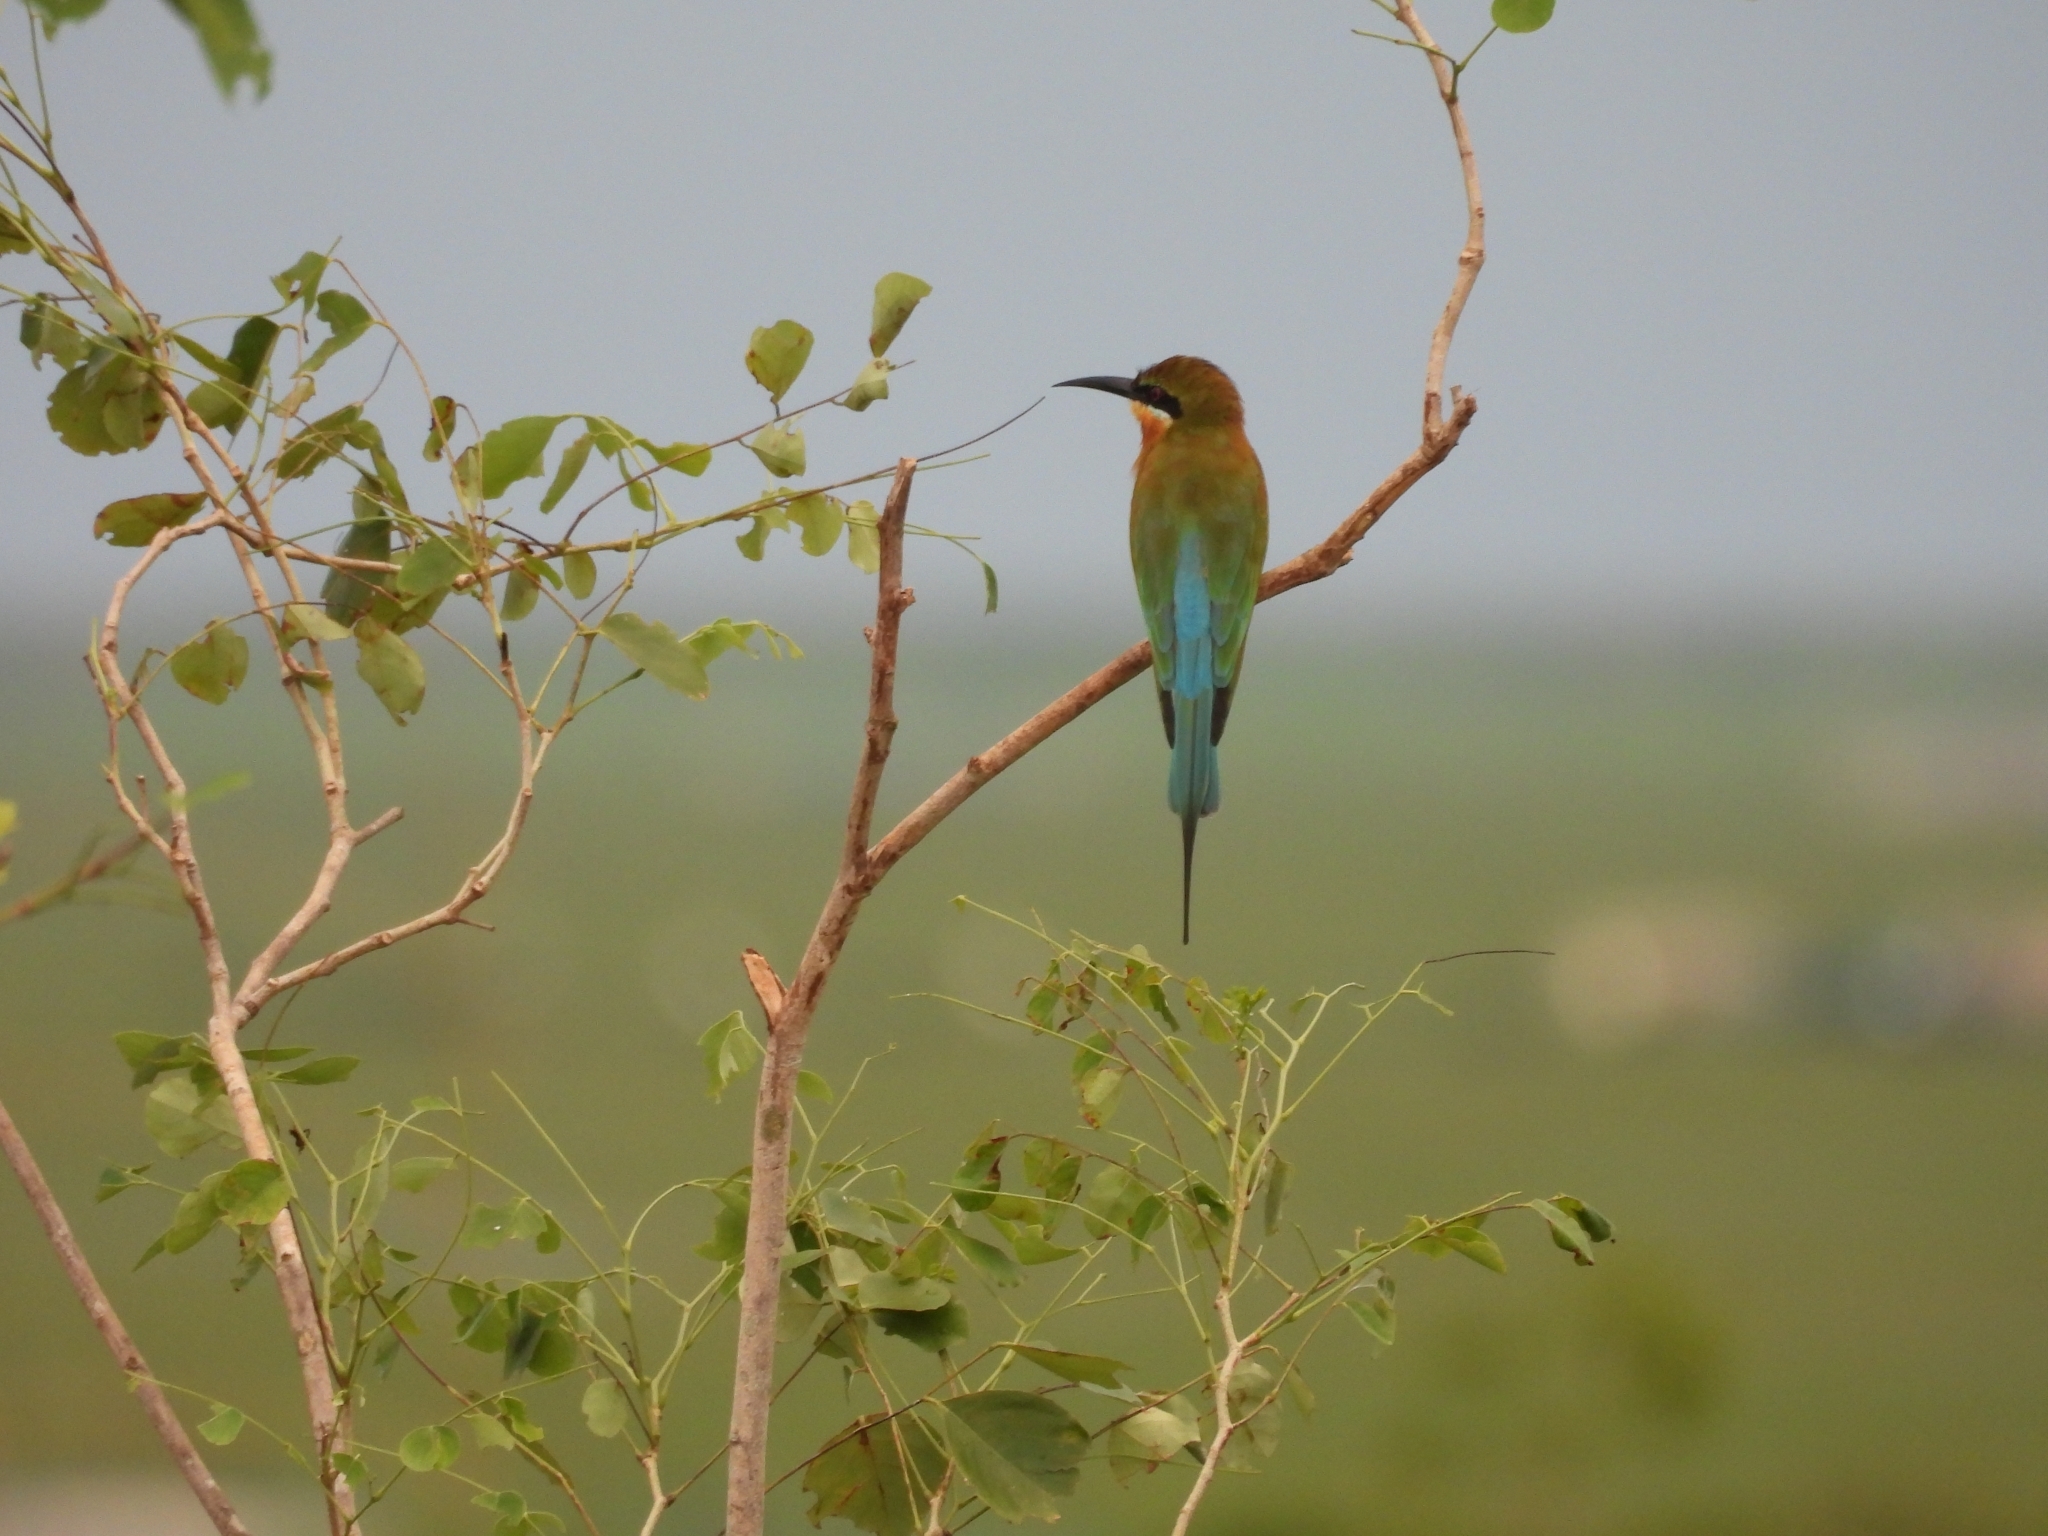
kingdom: Animalia
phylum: Chordata
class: Aves
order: Coraciiformes
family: Meropidae
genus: Merops
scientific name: Merops philippinus
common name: Blue-tailed bee-eater
